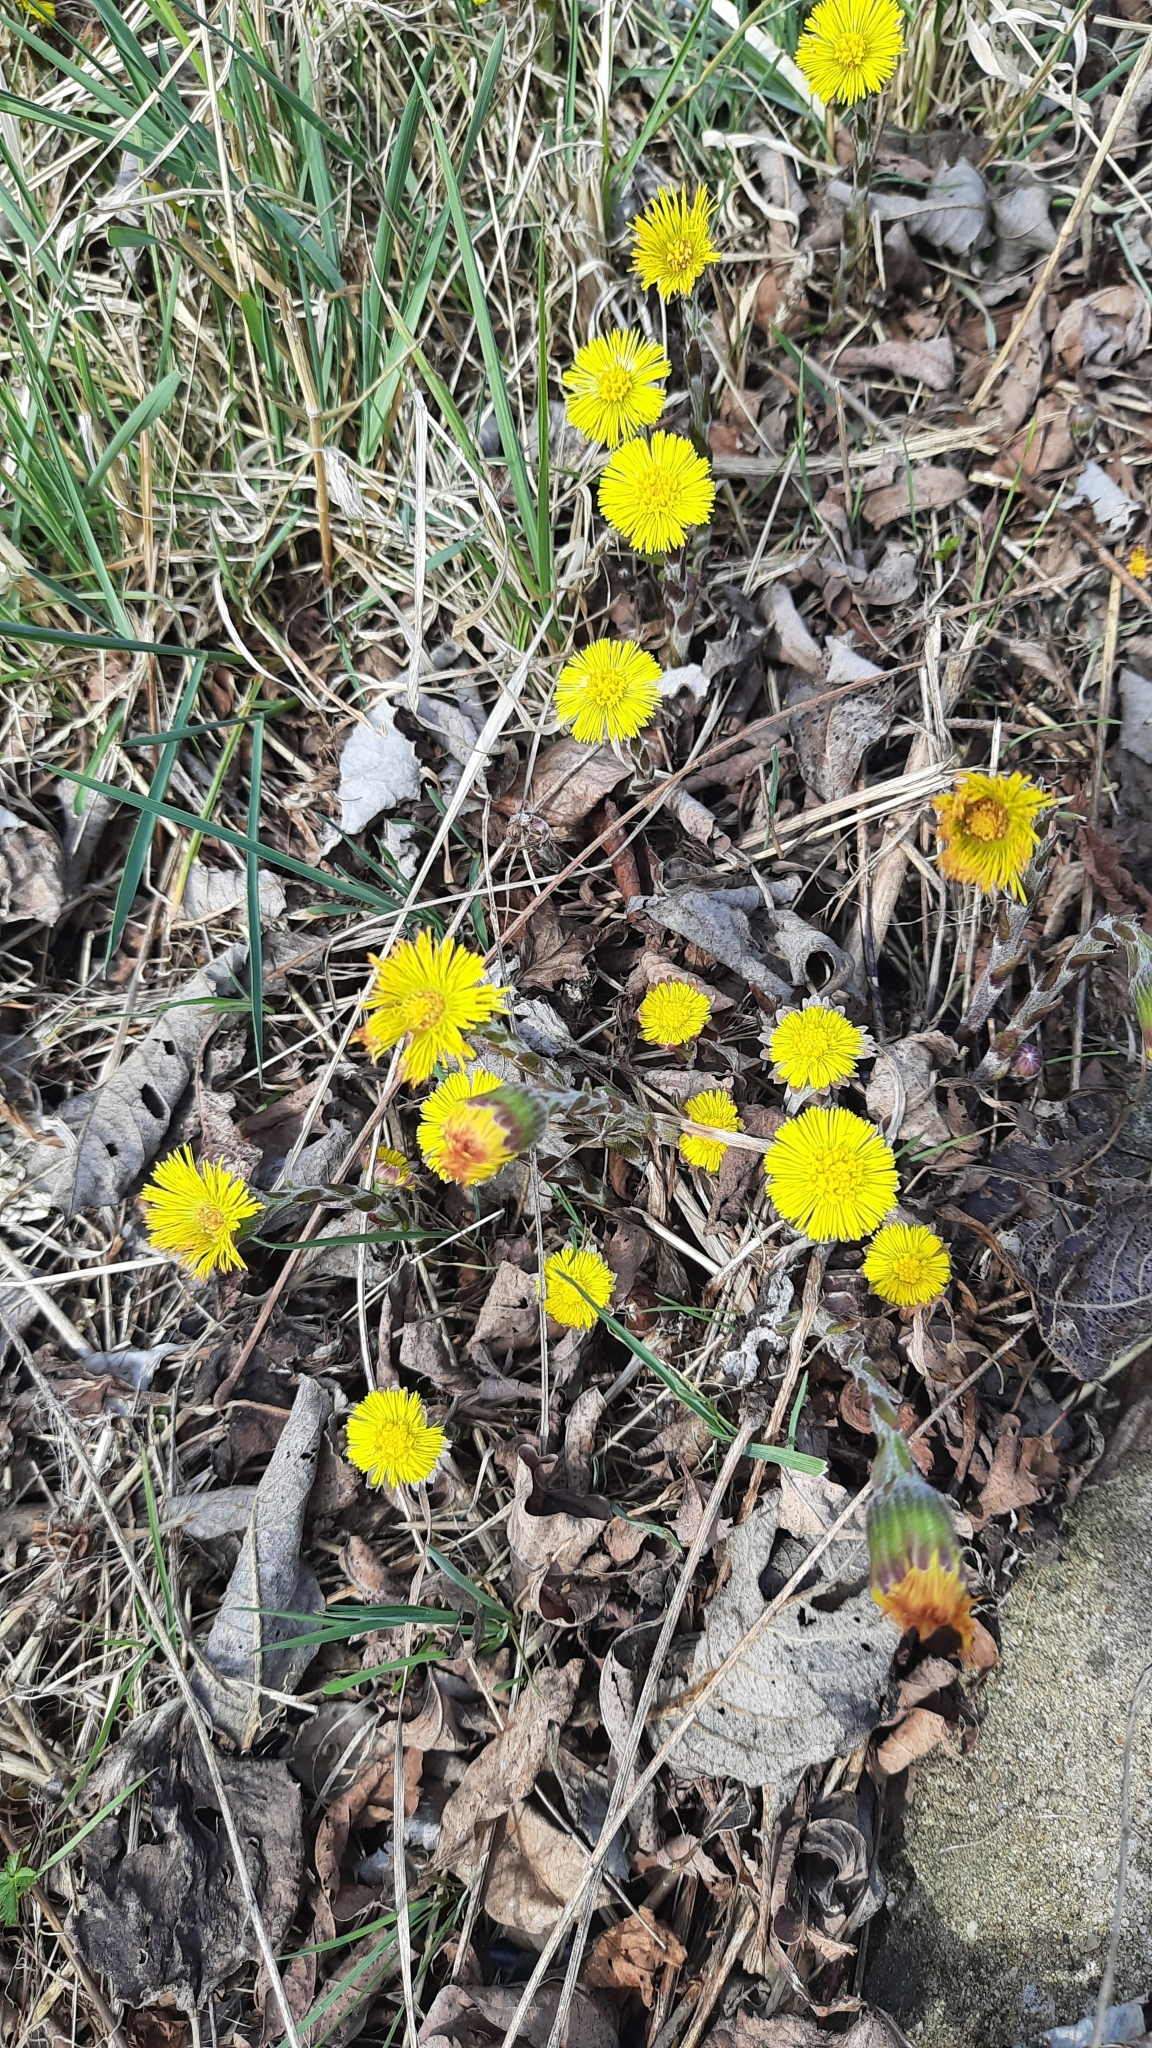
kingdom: Plantae
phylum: Tracheophyta
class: Magnoliopsida
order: Asterales
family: Asteraceae
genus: Tussilago
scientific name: Tussilago farfara
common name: Coltsfoot
